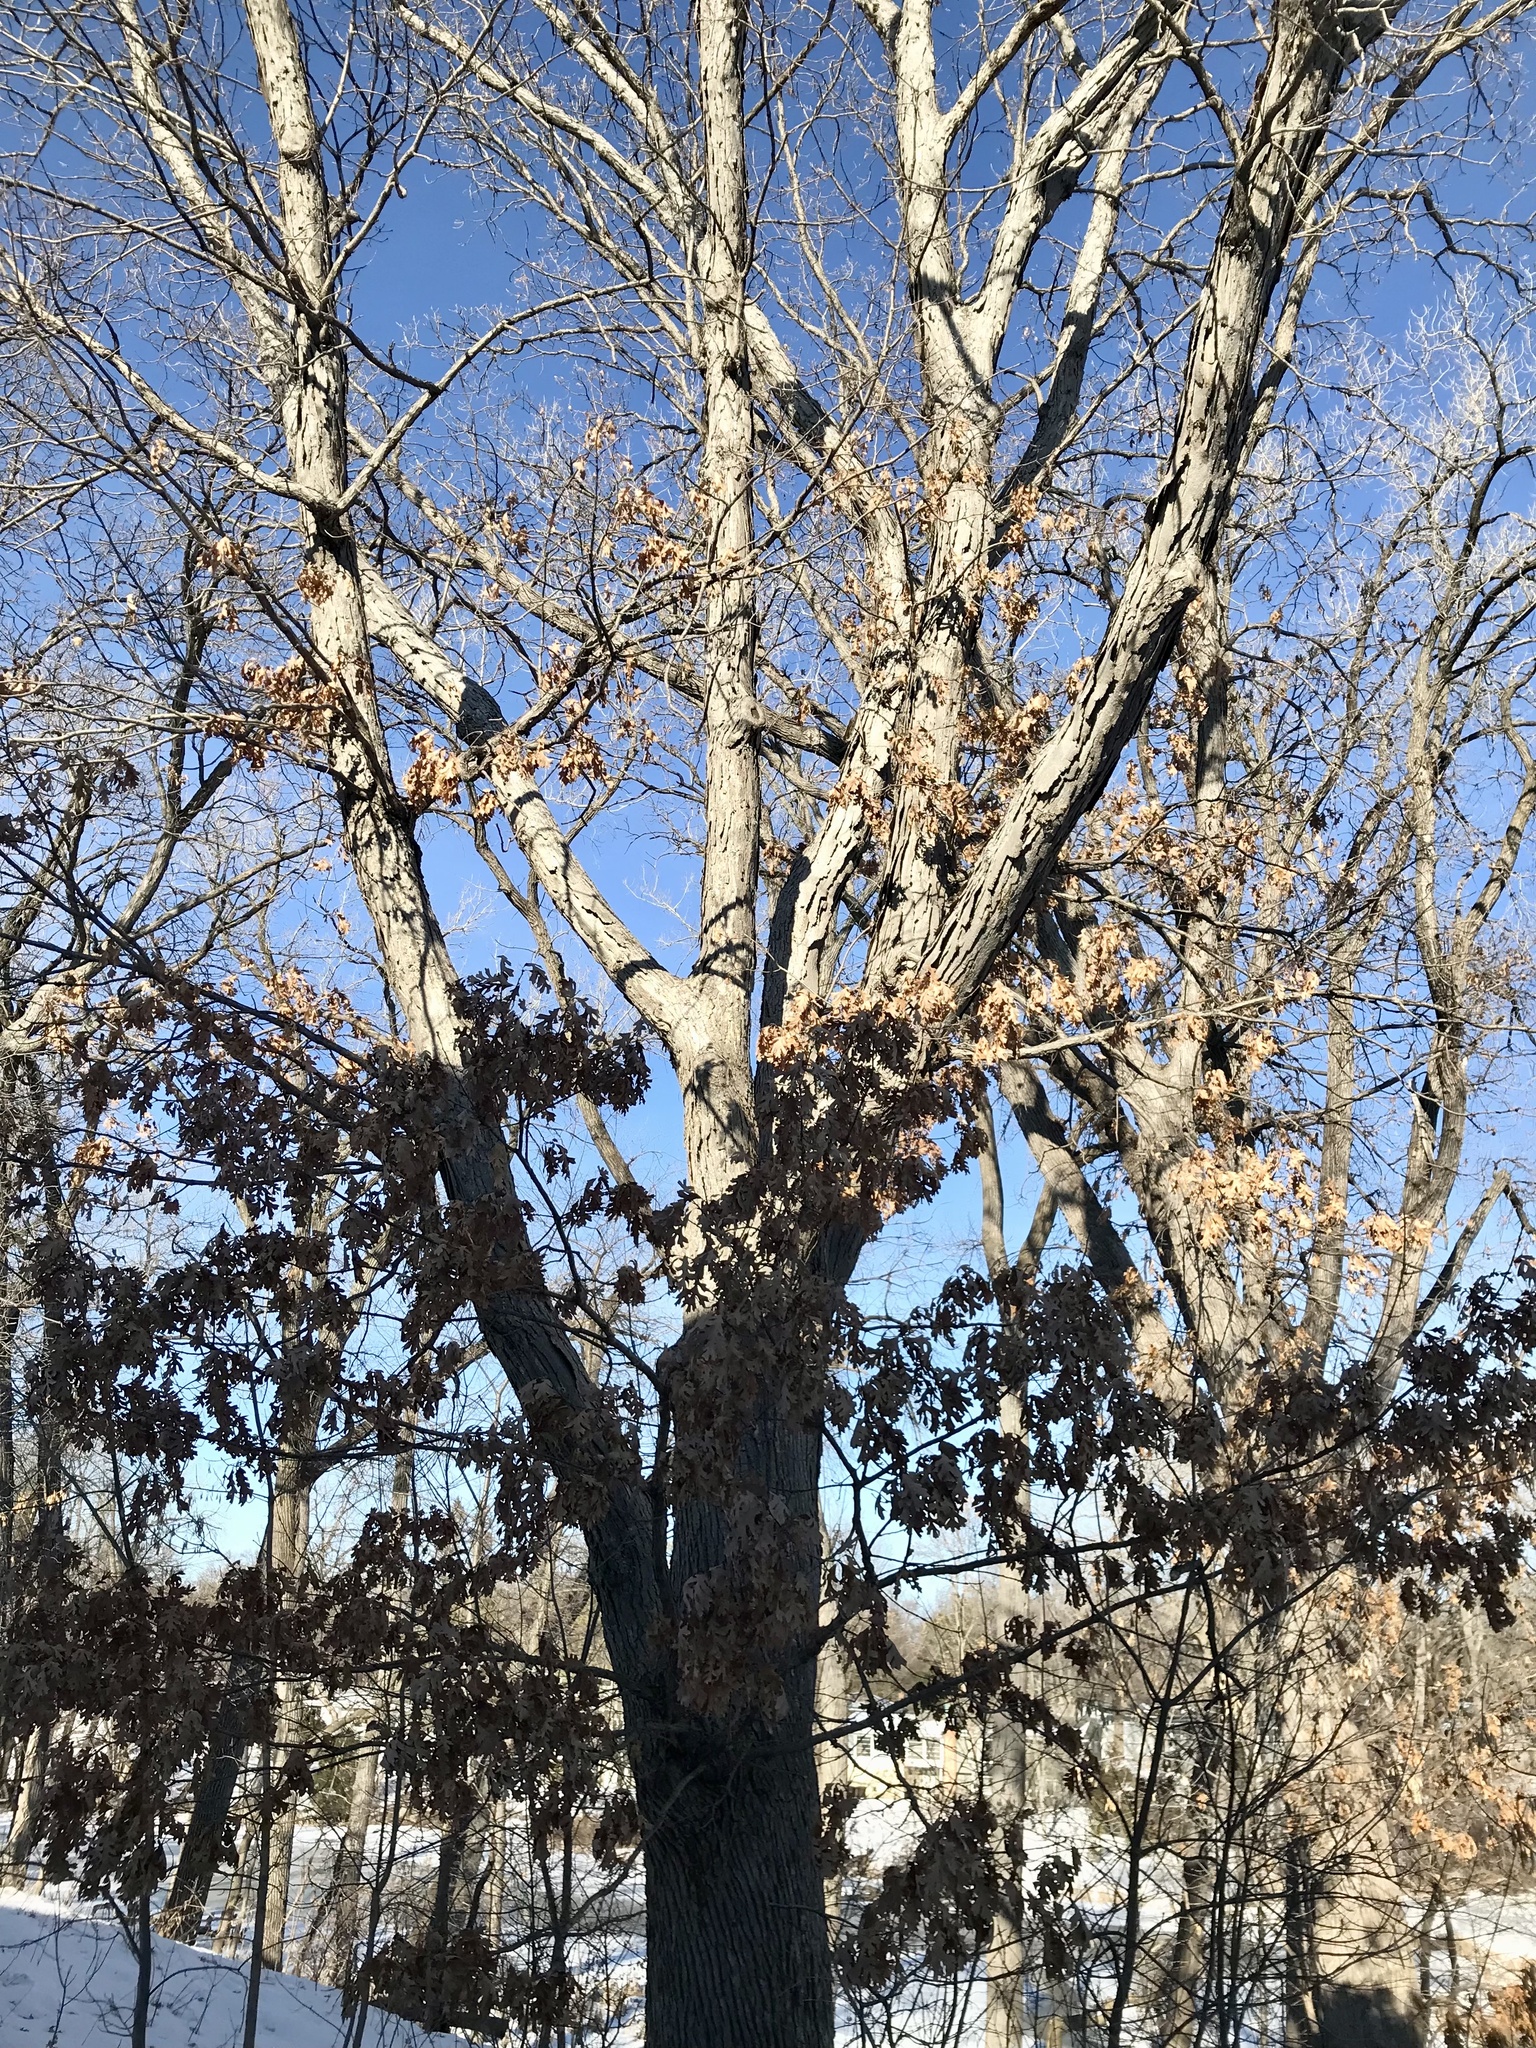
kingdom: Plantae
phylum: Tracheophyta
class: Magnoliopsida
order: Fagales
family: Fagaceae
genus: Quercus
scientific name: Quercus alba
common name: White oak
